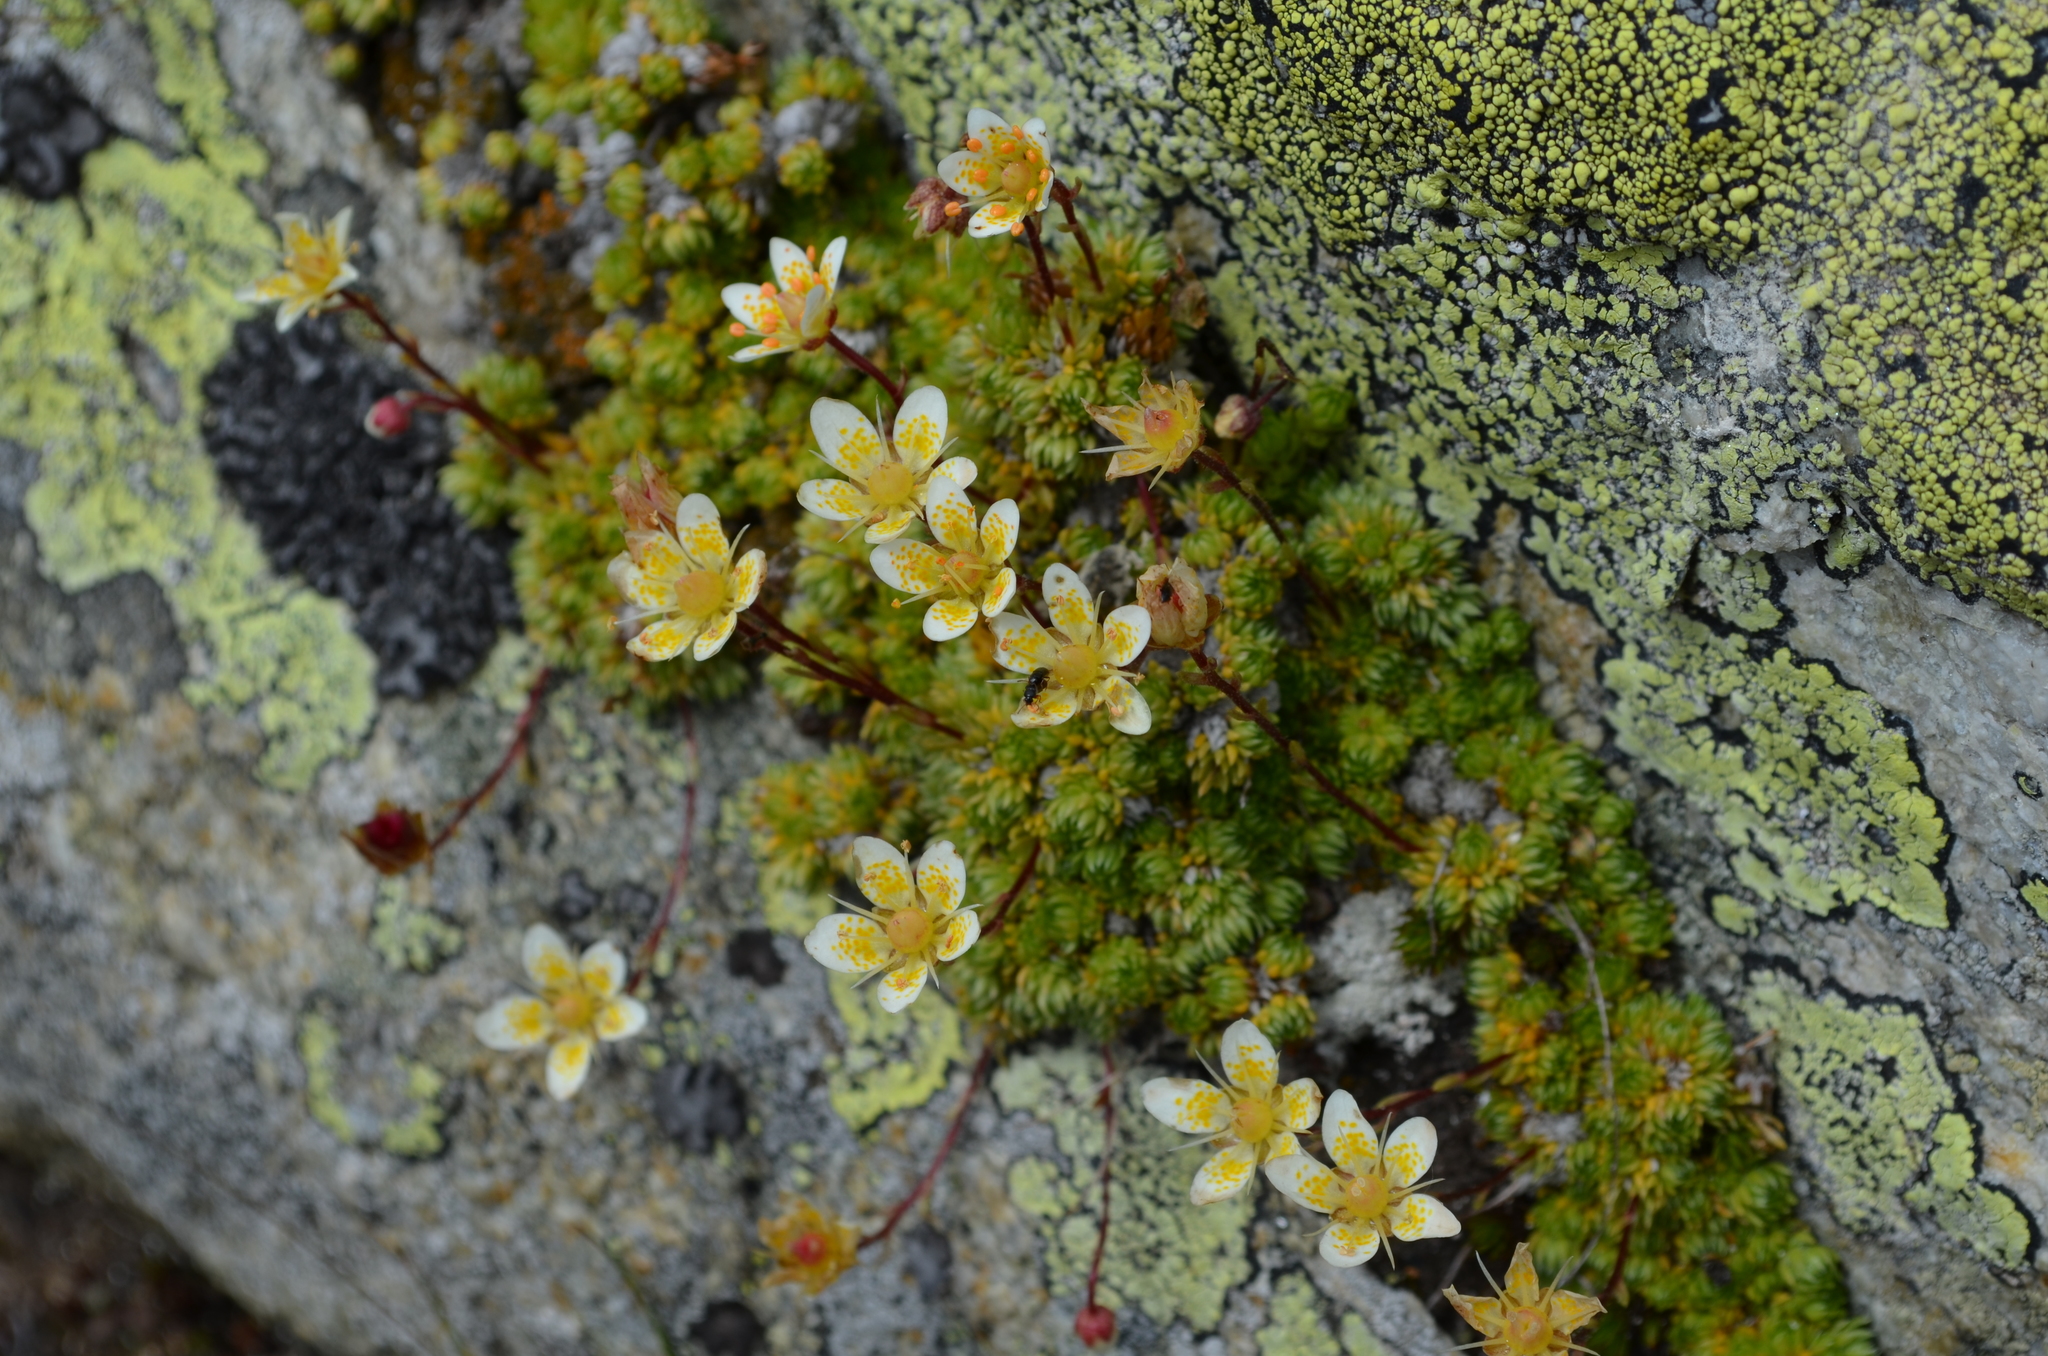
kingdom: Plantae
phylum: Tracheophyta
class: Magnoliopsida
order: Saxifragales
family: Saxifragaceae
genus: Saxifraga
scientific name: Saxifraga bryoides
